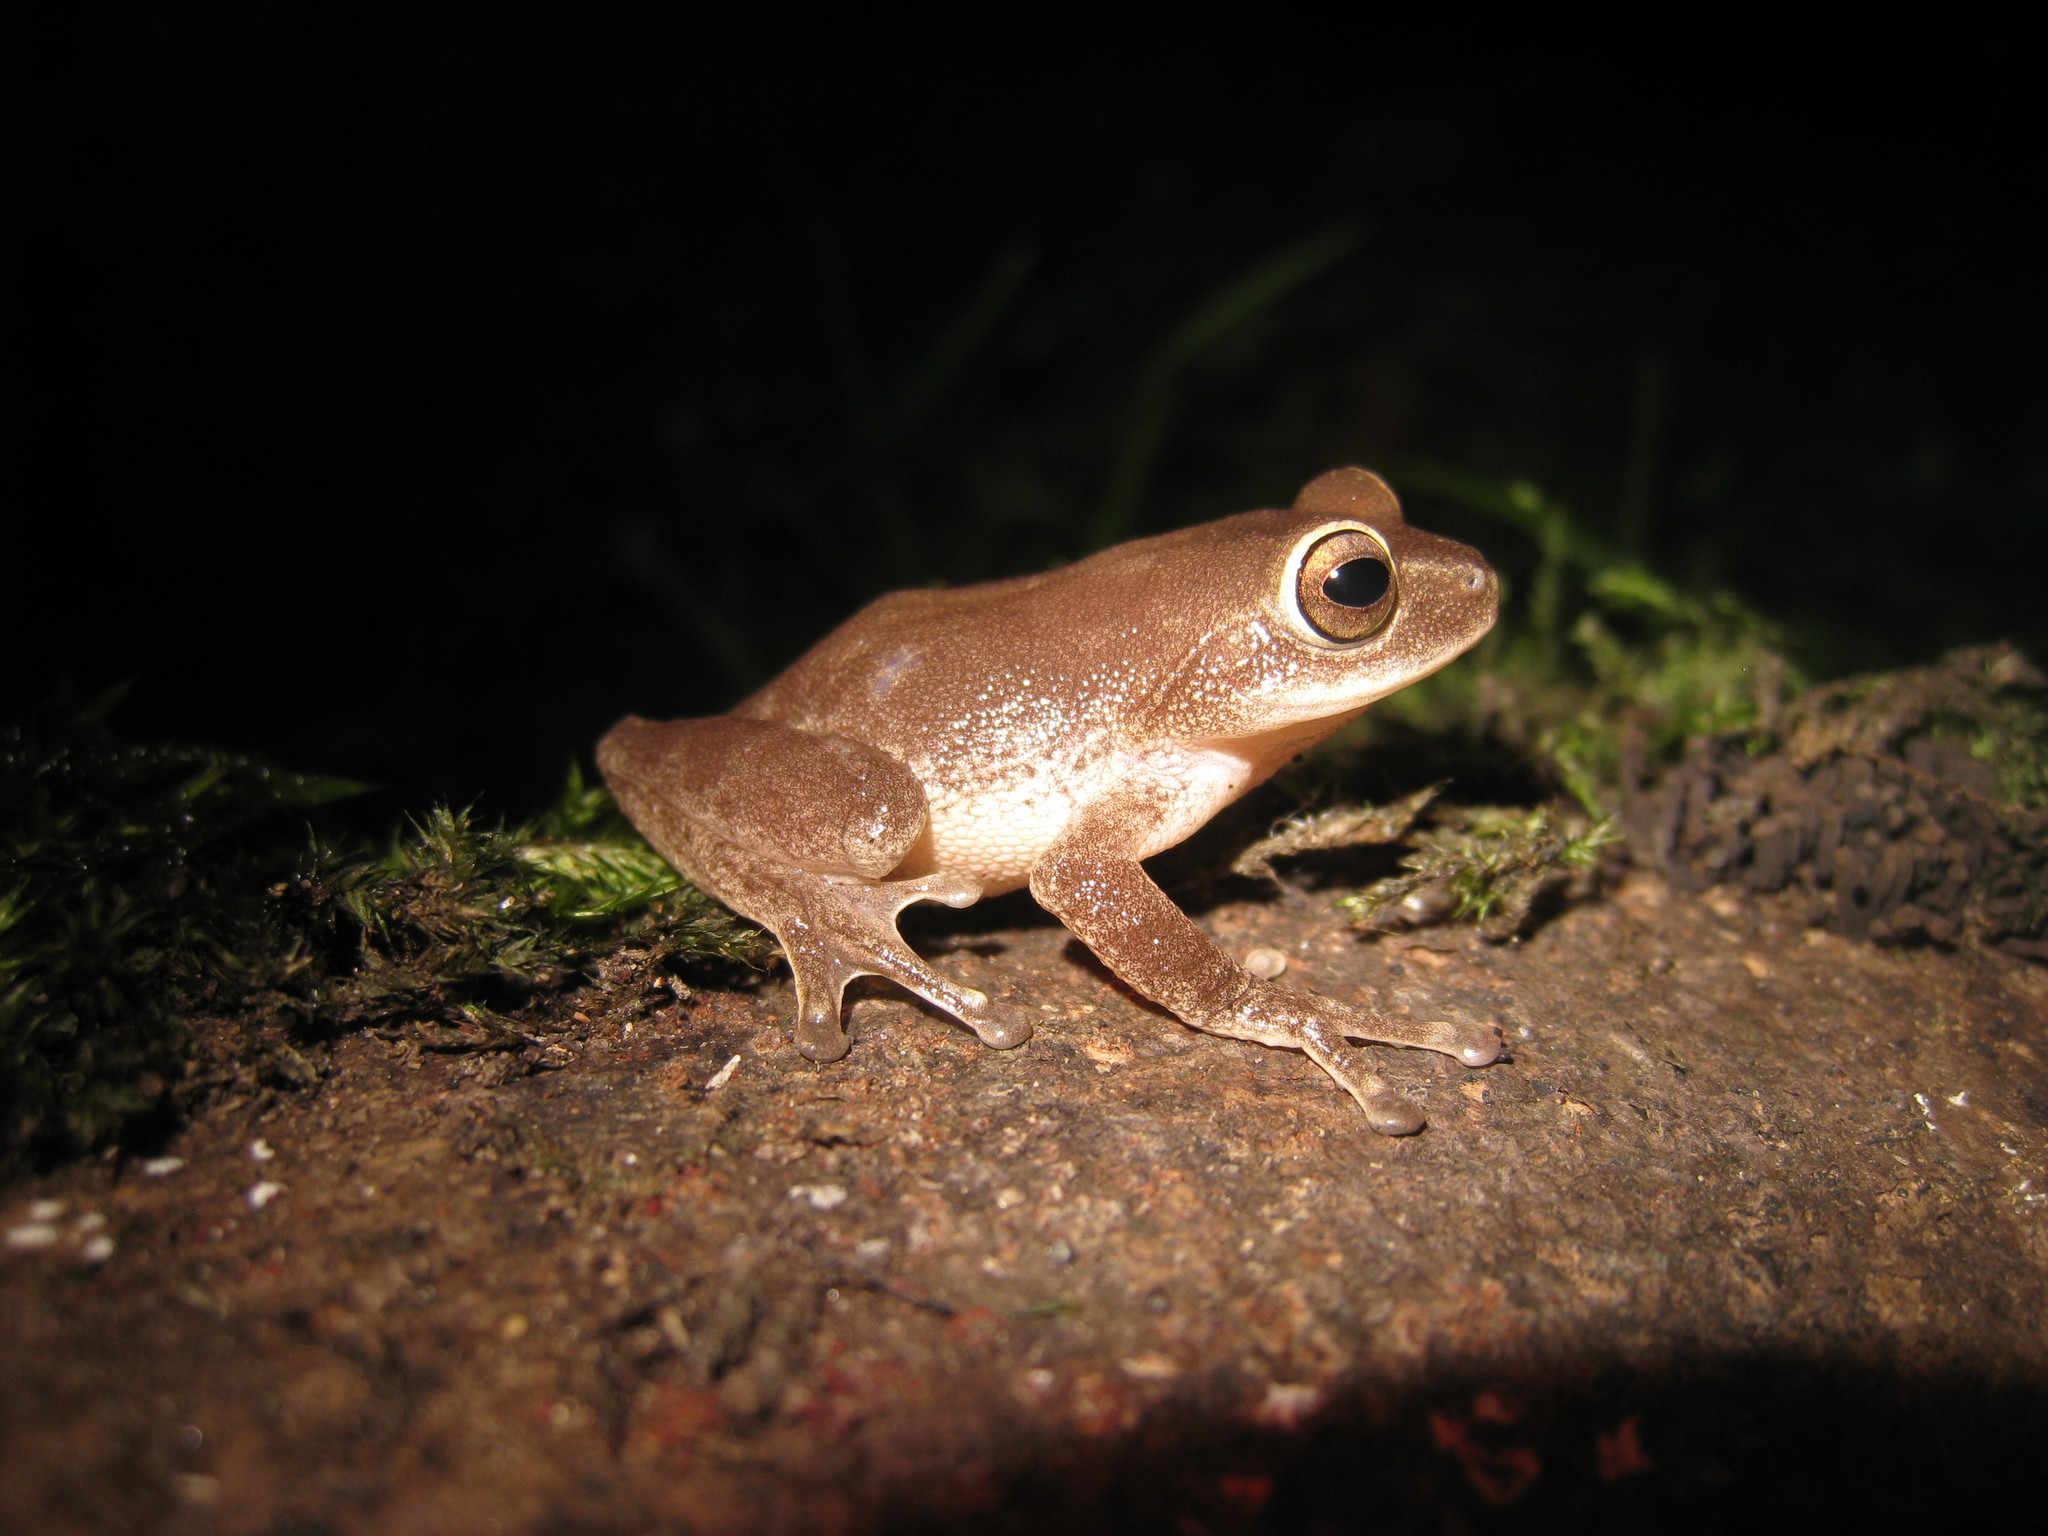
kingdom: Animalia
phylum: Chordata
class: Amphibia
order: Anura
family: Rhacophoridae
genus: Raorchestes
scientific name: Raorchestes ponmudi
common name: Large ponmudi bush frog
